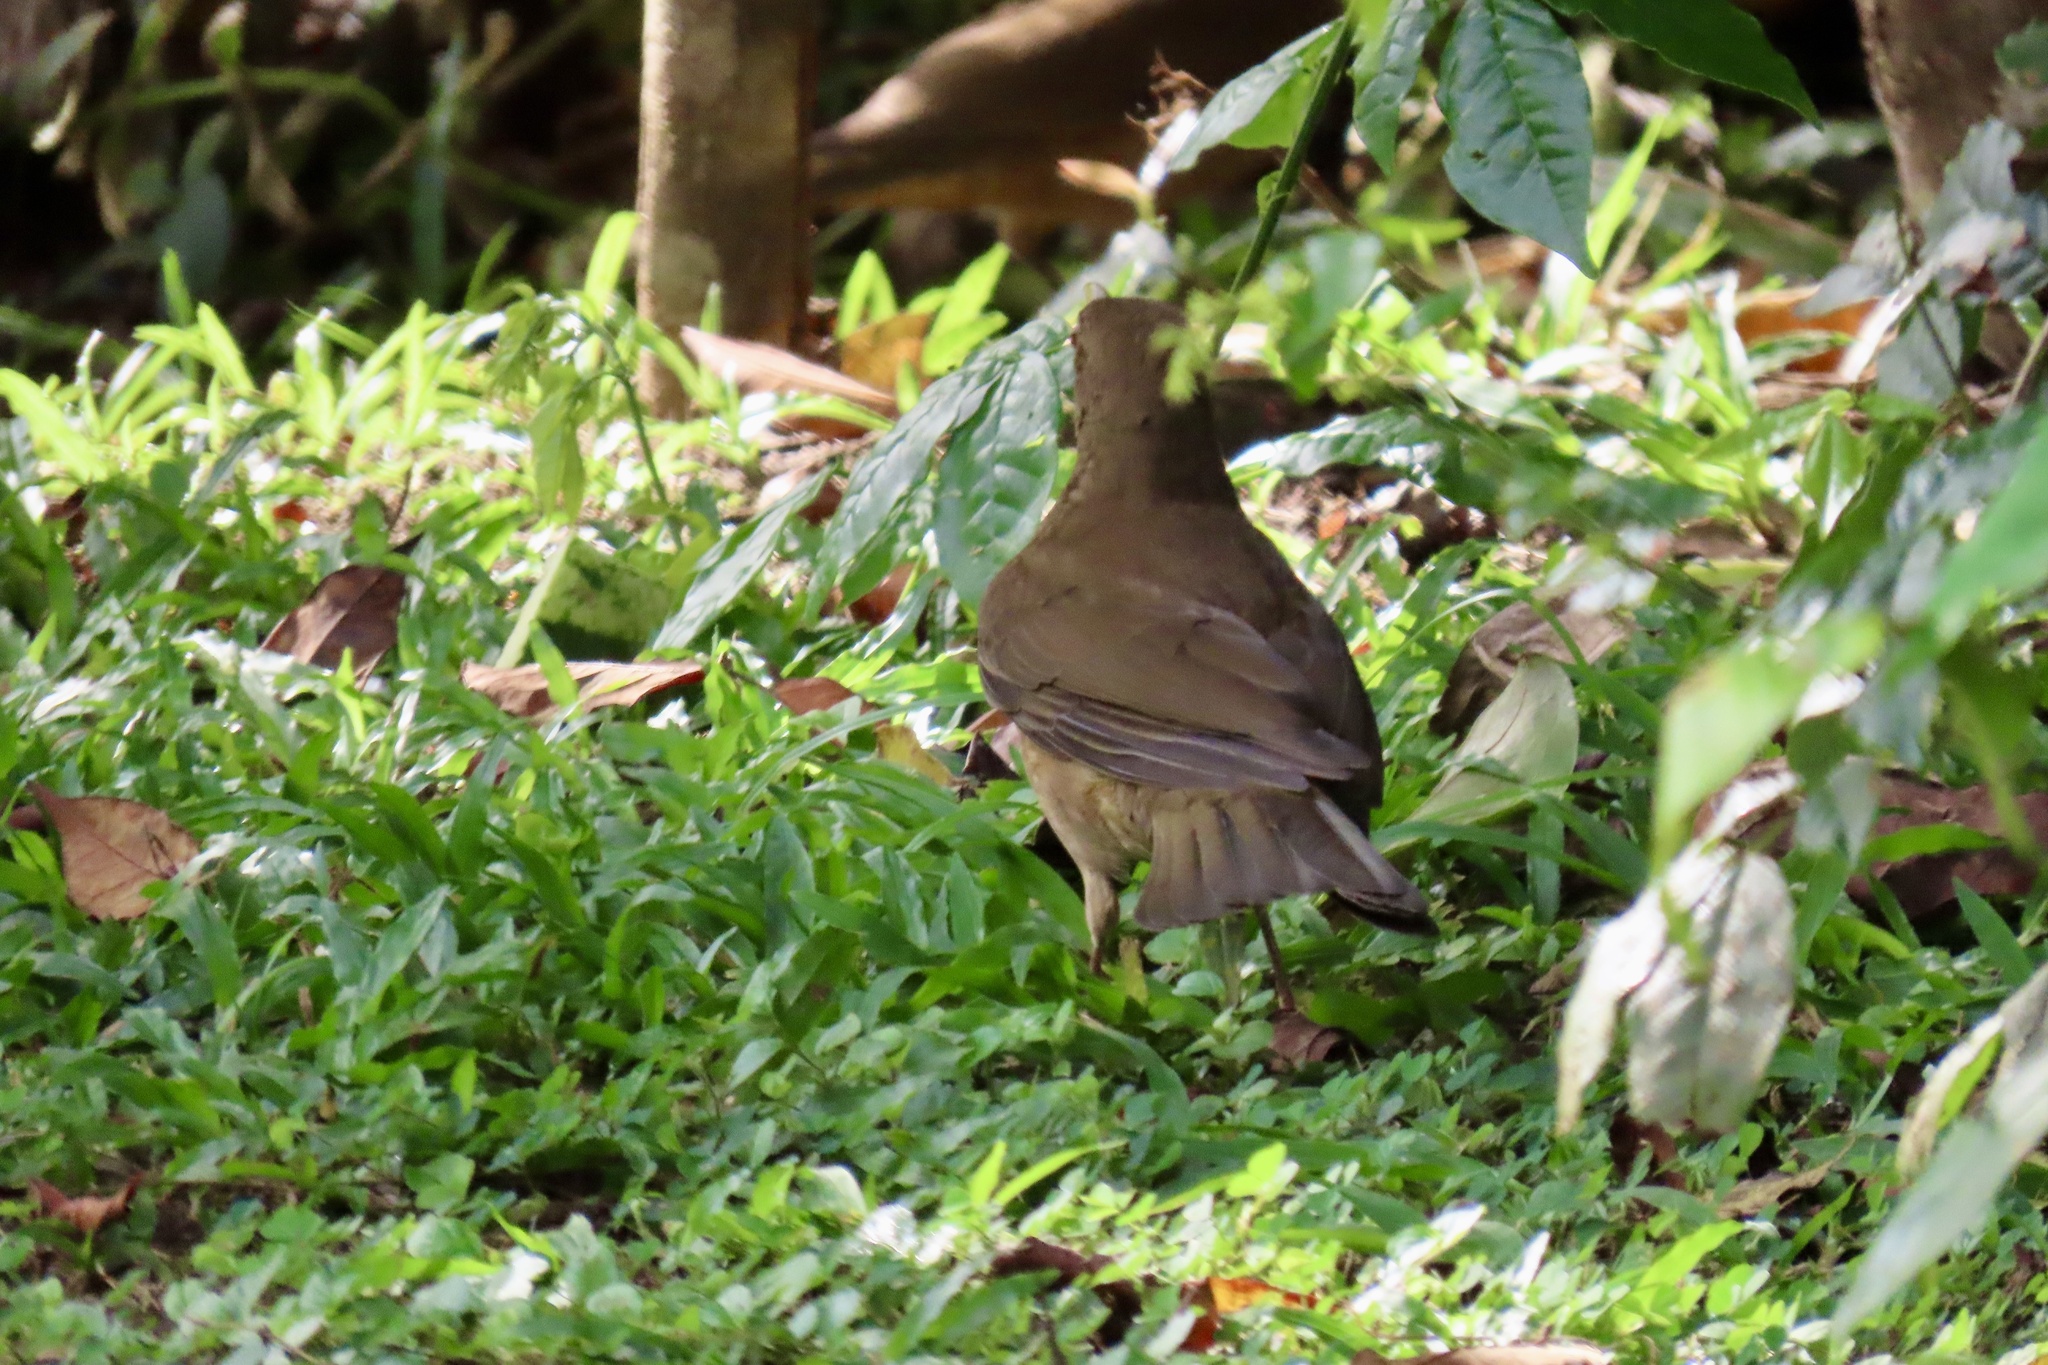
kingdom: Animalia
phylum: Chordata
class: Aves
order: Passeriformes
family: Turdidae
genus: Turdus
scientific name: Turdus grayi
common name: Clay-colored thrush
